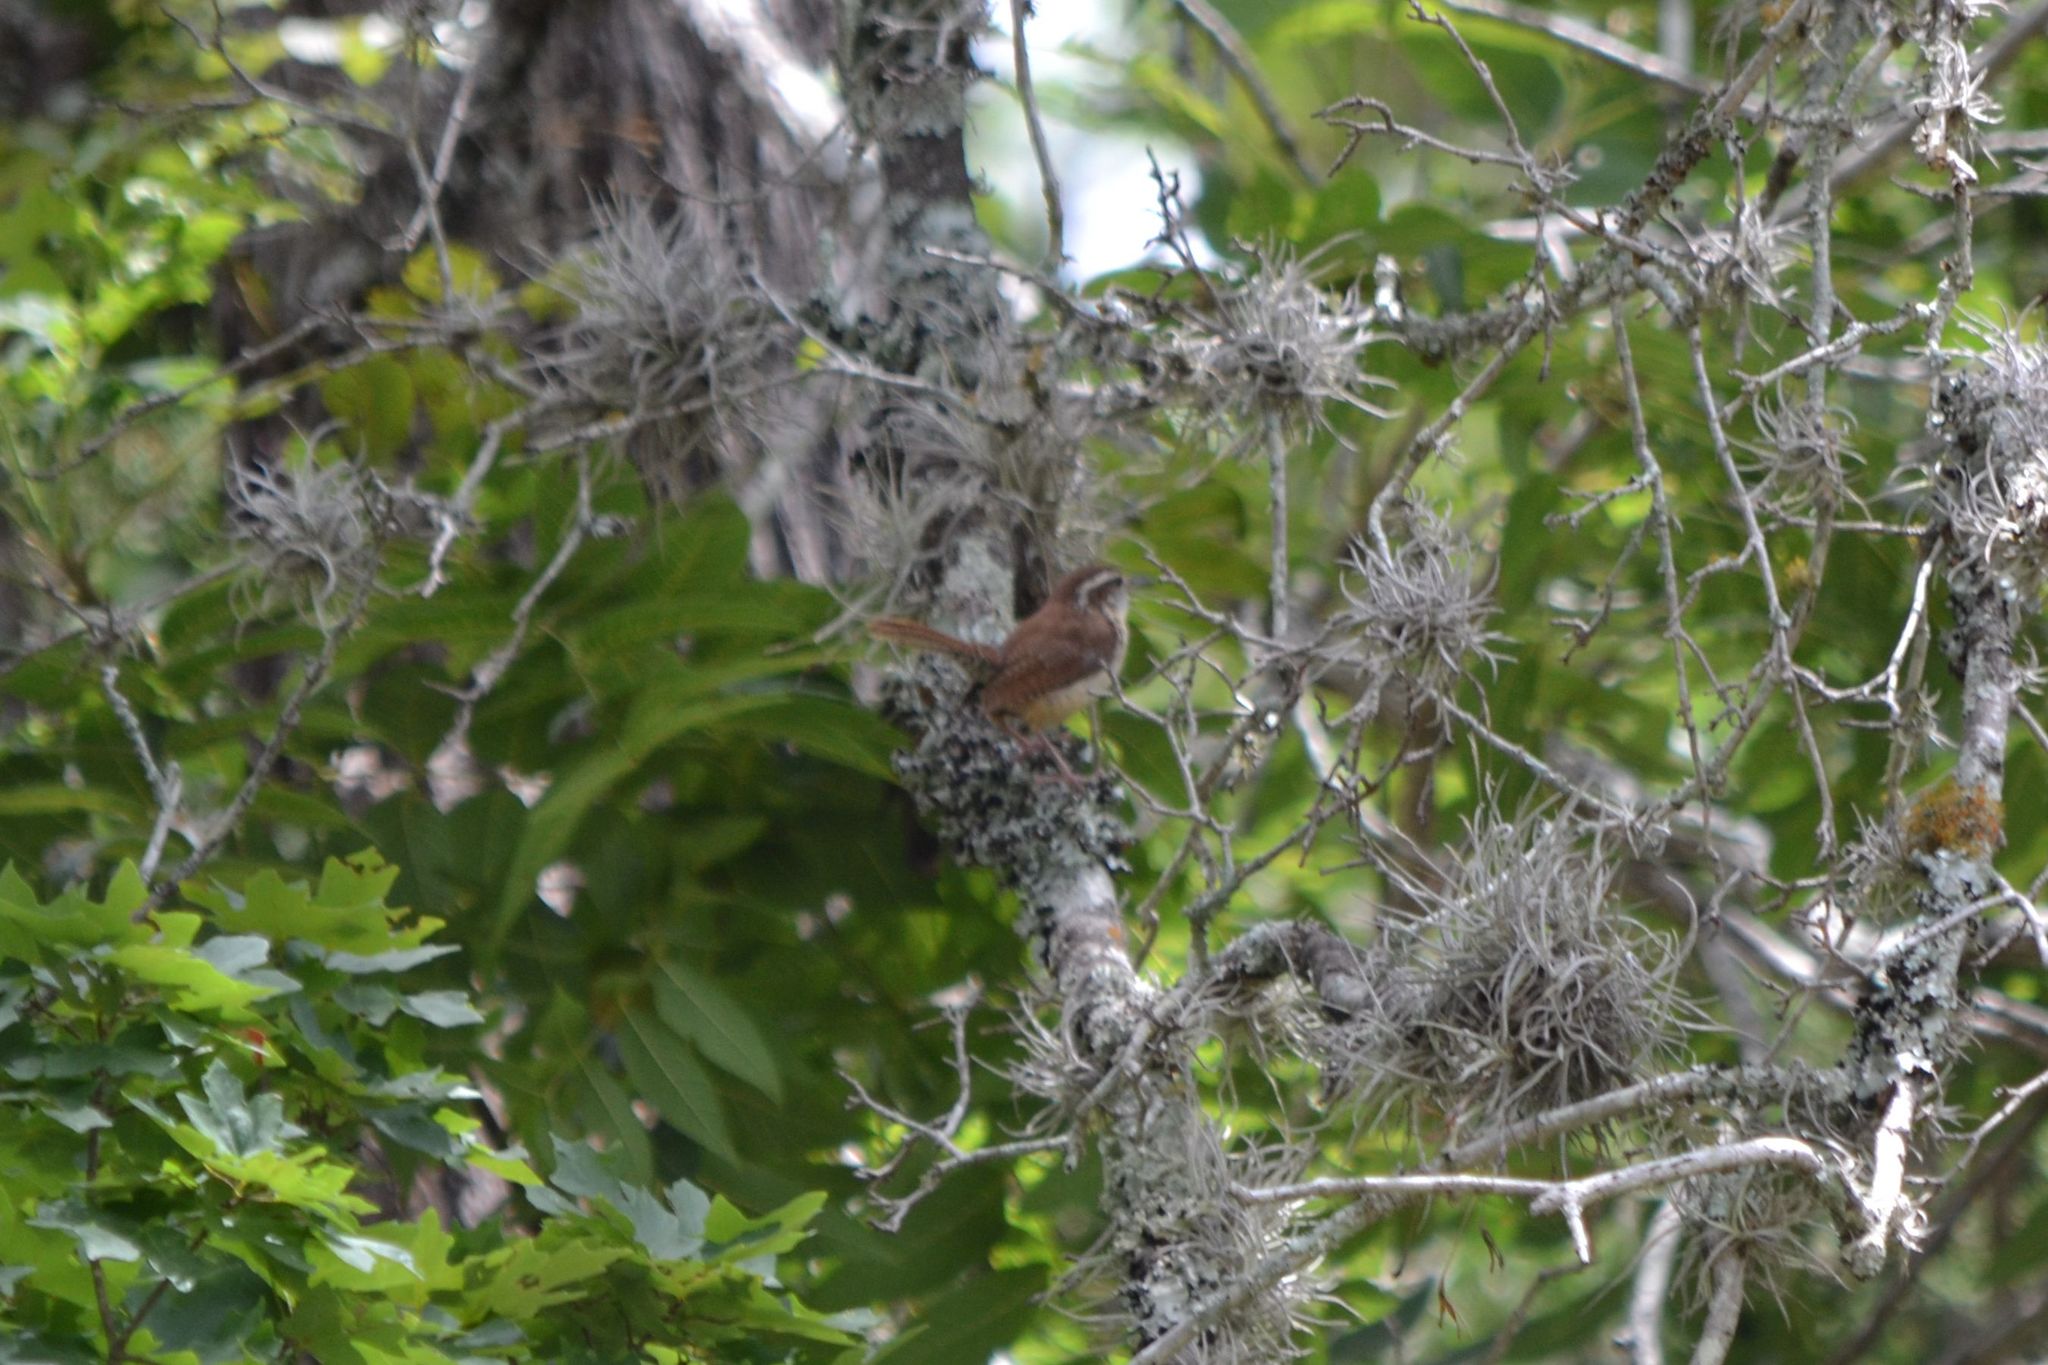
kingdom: Animalia
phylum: Chordata
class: Aves
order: Passeriformes
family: Troglodytidae
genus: Thryothorus
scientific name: Thryothorus ludovicianus
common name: Carolina wren
